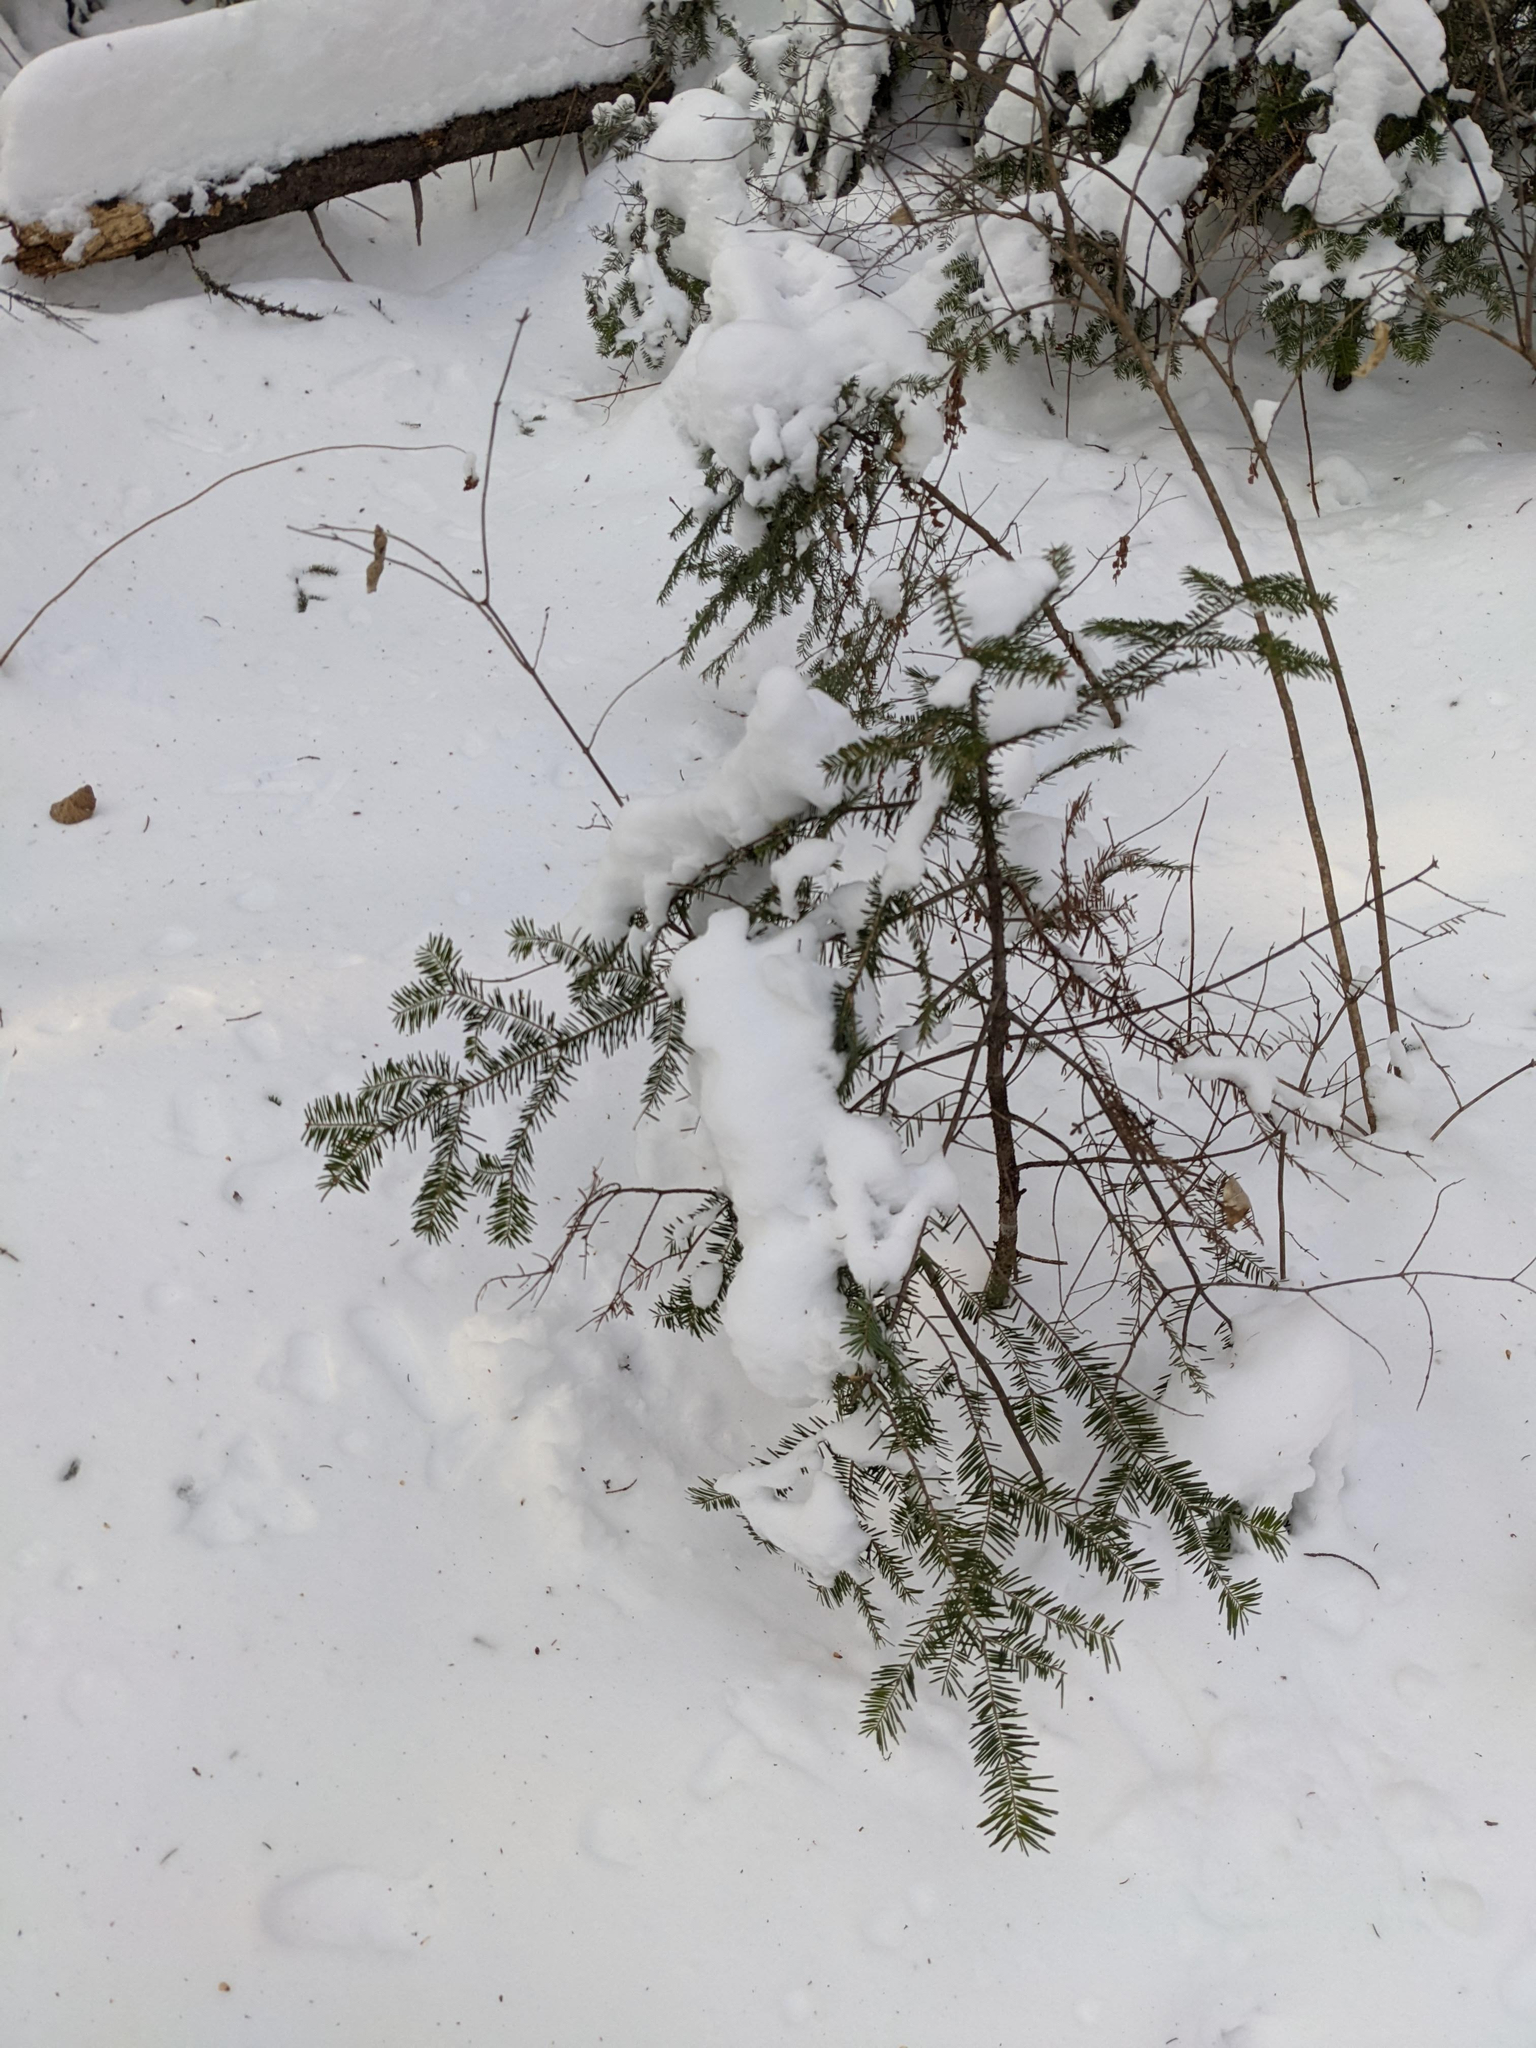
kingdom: Plantae
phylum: Tracheophyta
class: Pinopsida
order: Pinales
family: Pinaceae
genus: Abies
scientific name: Abies balsamea
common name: Balsam fir
